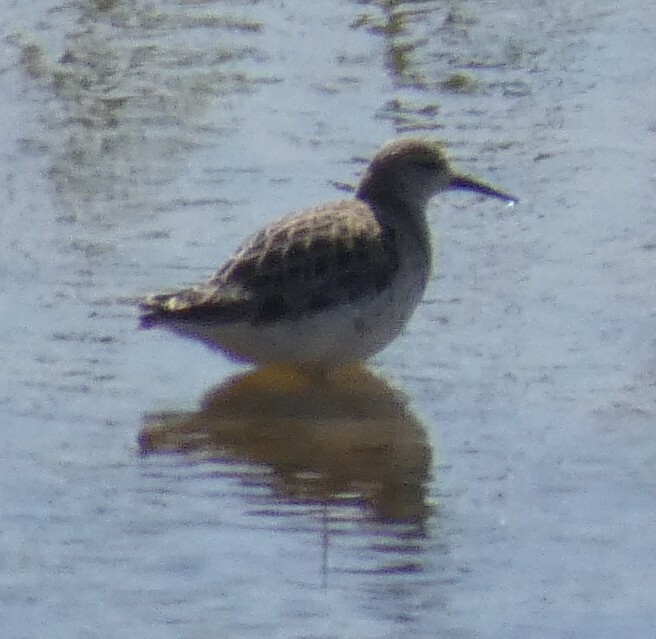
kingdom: Animalia
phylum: Chordata
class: Aves
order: Charadriiformes
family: Scolopacidae
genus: Calidris
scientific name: Calidris pugnax
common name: Ruff
